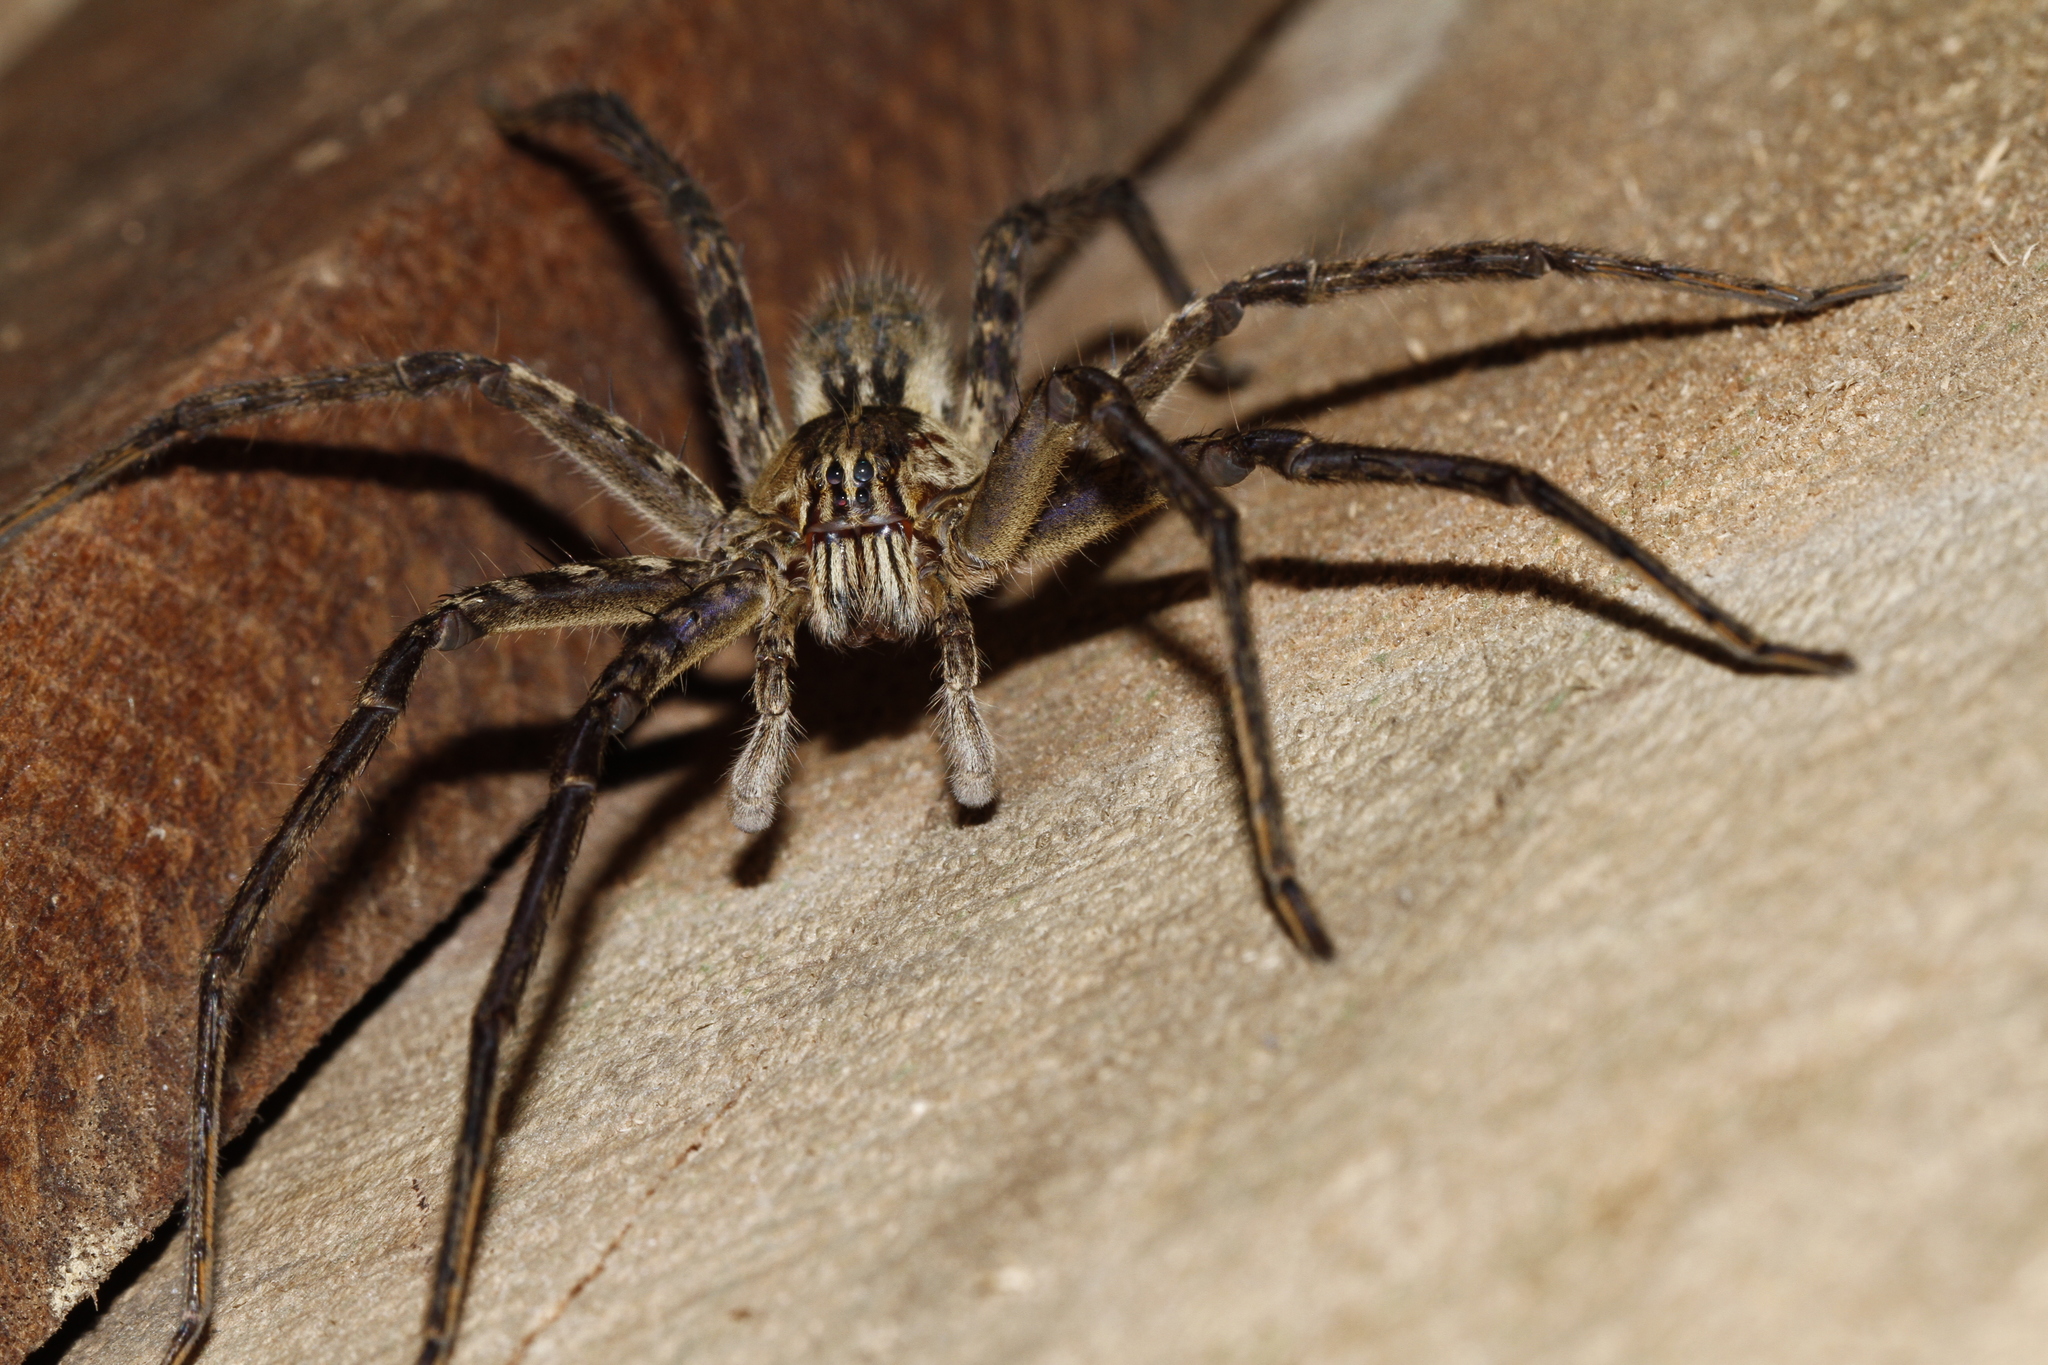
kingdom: Animalia
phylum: Arthropoda
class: Arachnida
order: Araneae
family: Trechaleidae
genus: Cupiennius
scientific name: Cupiennius coccineus
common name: Wandering spiders
